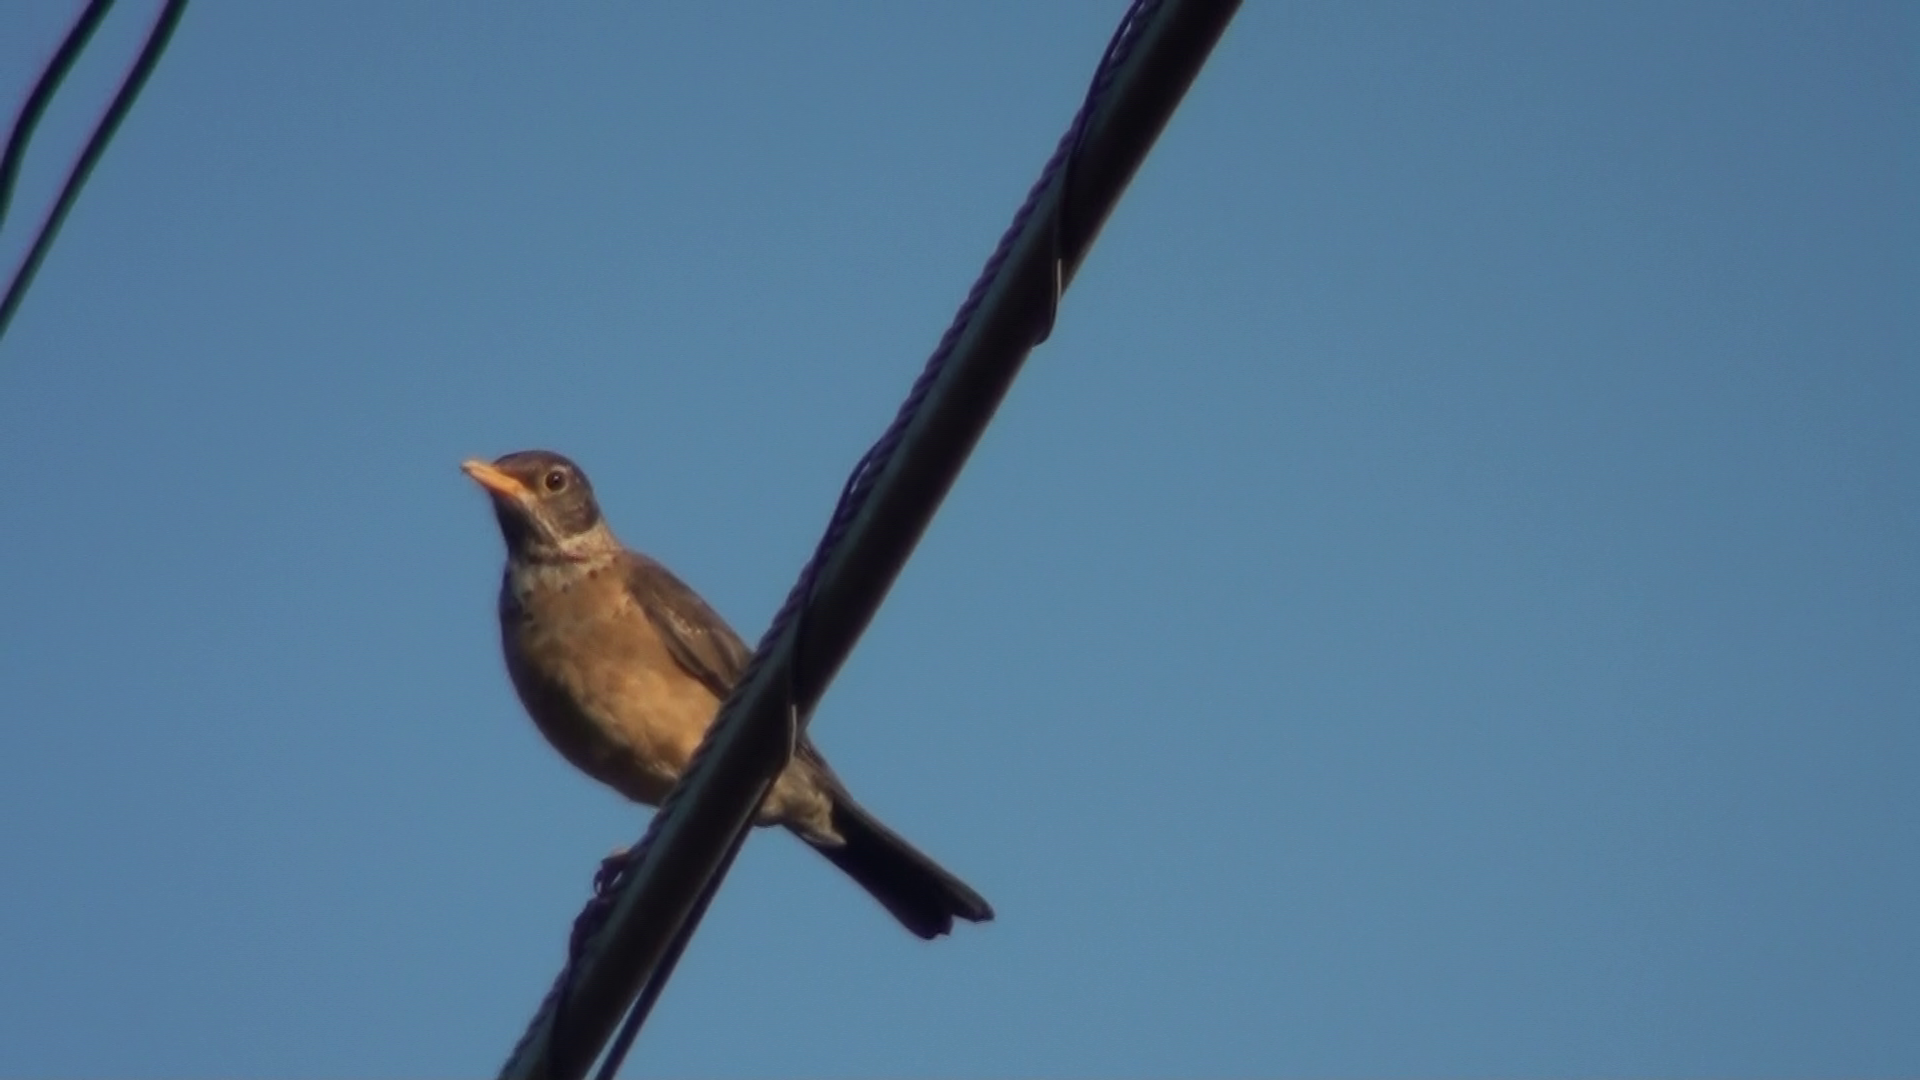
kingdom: Animalia
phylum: Chordata
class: Aves
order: Passeriformes
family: Turdidae
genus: Turdus
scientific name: Turdus falcklandii
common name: Austral thrush
